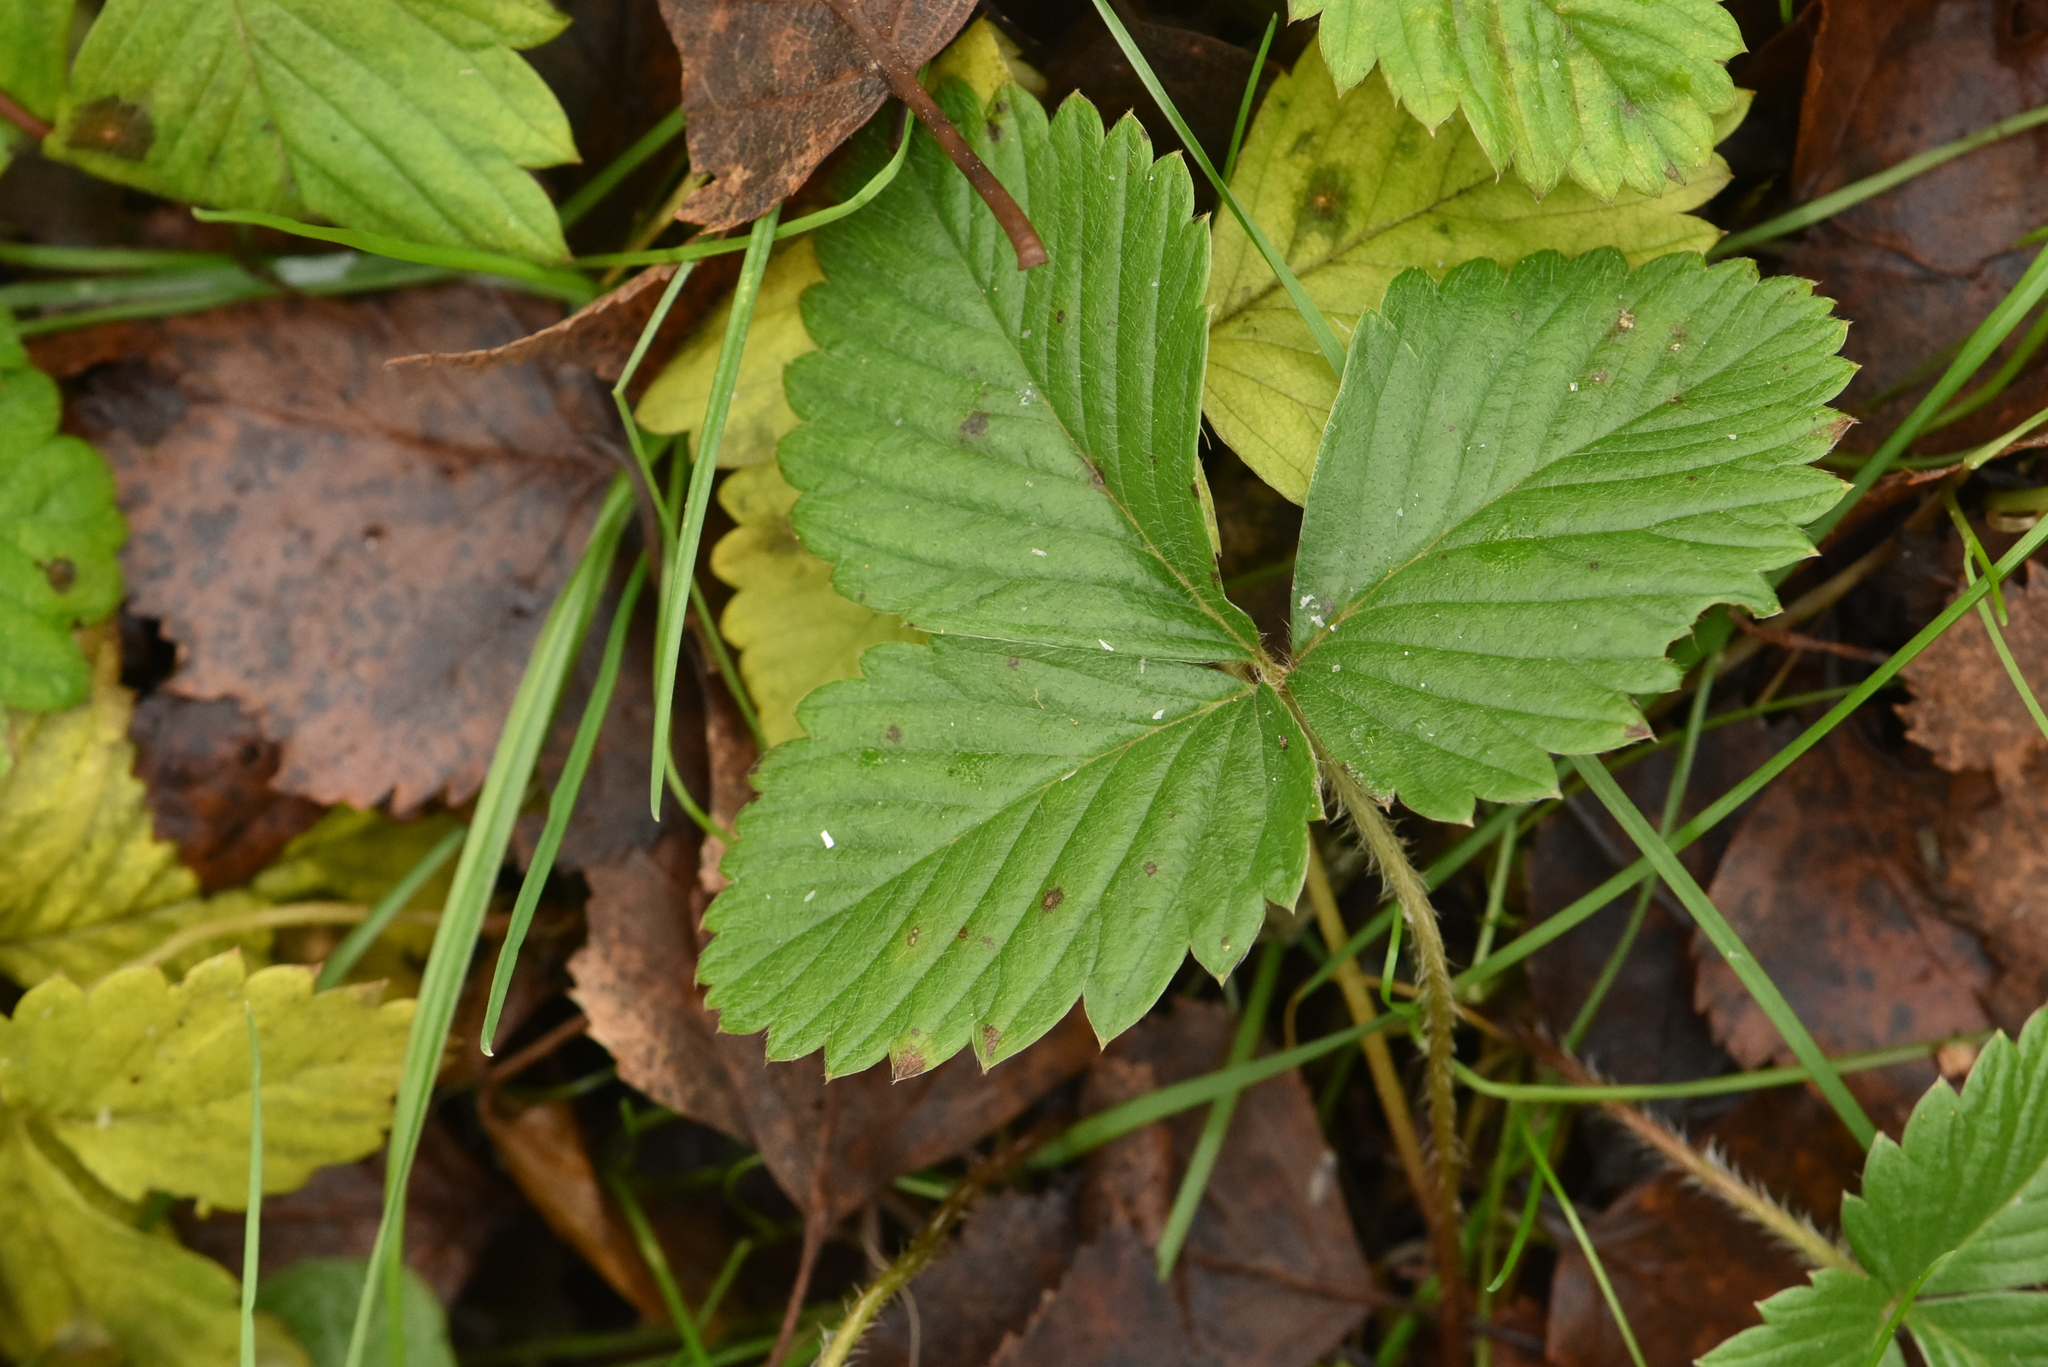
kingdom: Plantae
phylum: Tracheophyta
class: Magnoliopsida
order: Rosales
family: Rosaceae
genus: Fragaria
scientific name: Fragaria vesca
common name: Wild strawberry
